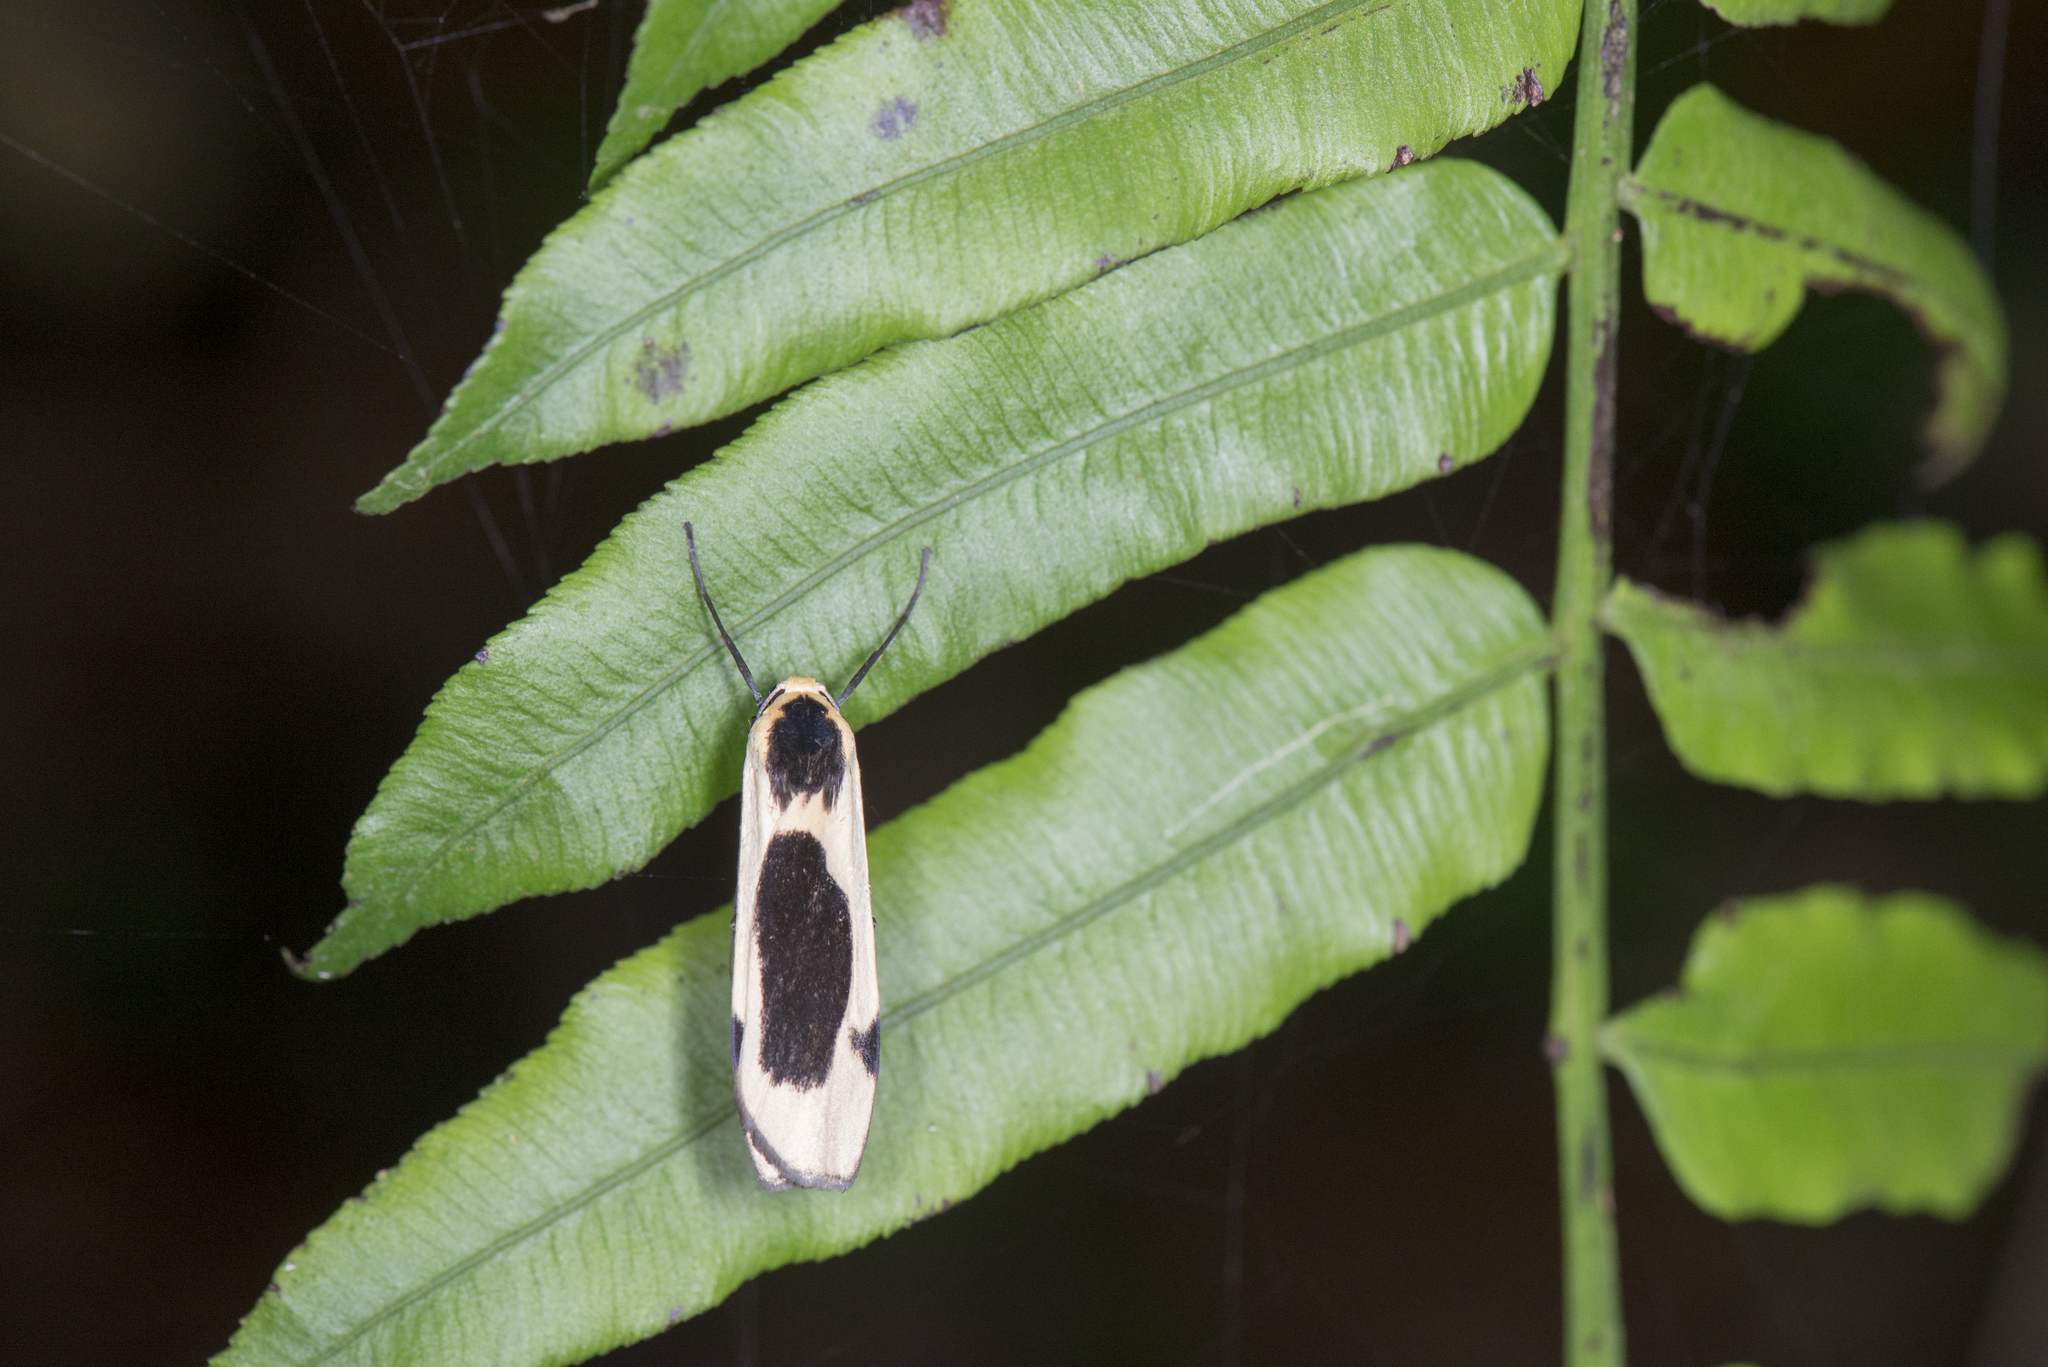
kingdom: Animalia
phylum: Arthropoda
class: Insecta
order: Lepidoptera
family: Erebidae
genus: Thysanoptyx
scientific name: Thysanoptyx incurvata
